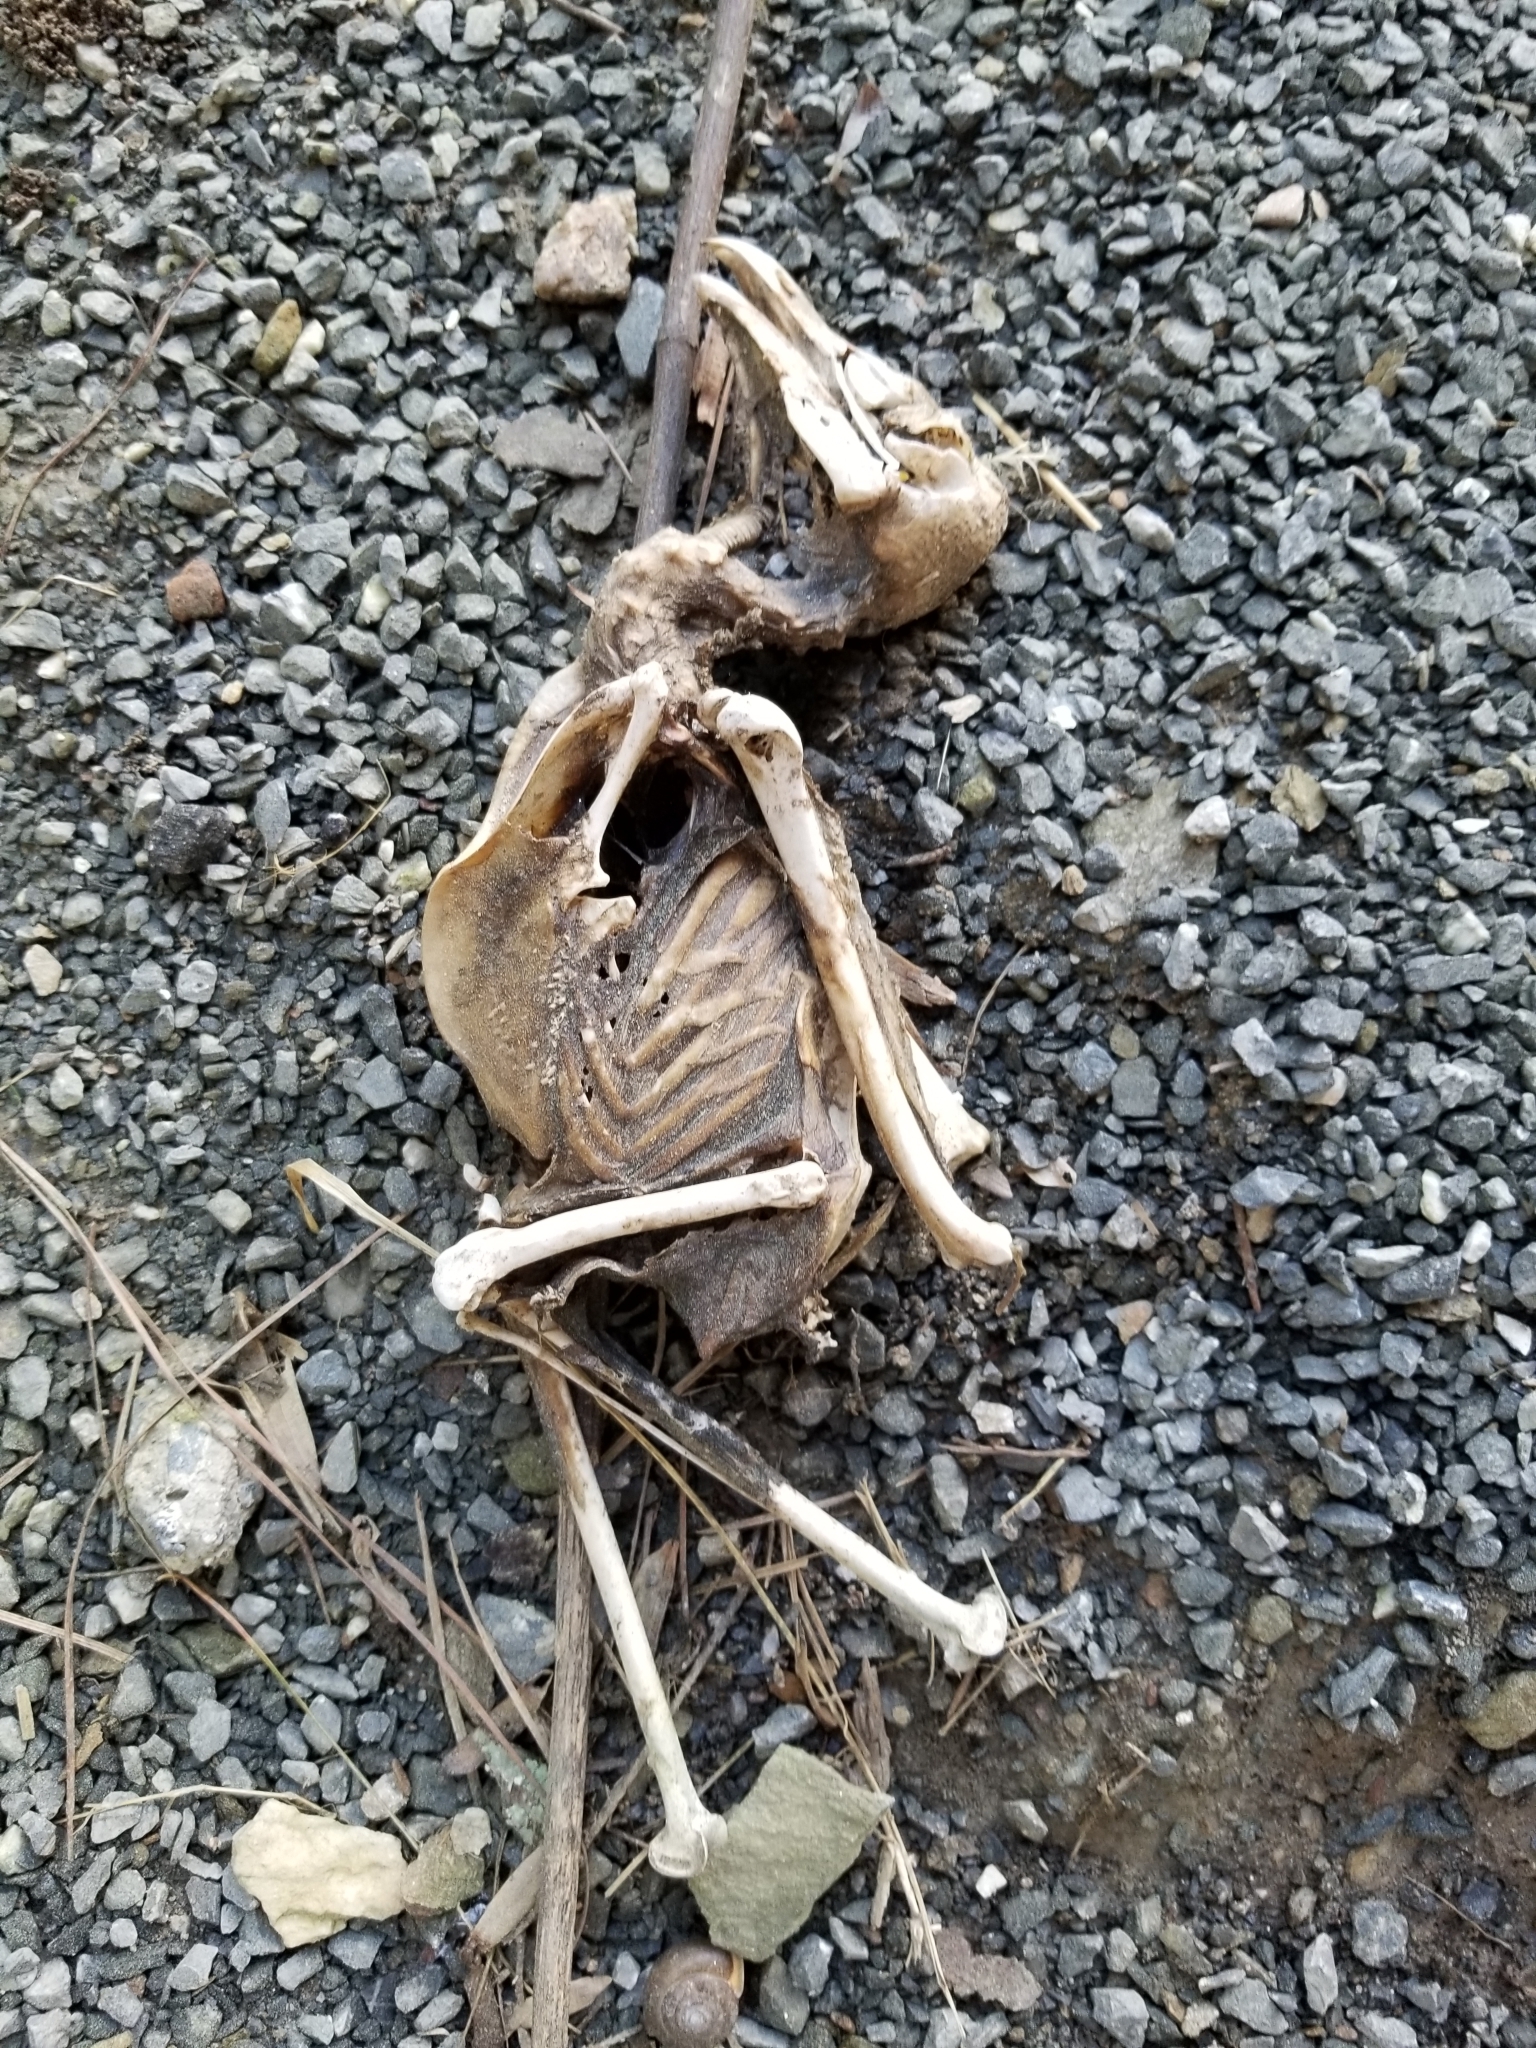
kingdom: Animalia
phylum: Chordata
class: Aves
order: Strigiformes
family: Tytonidae
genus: Tyto
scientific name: Tyto alba
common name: Barn owl
